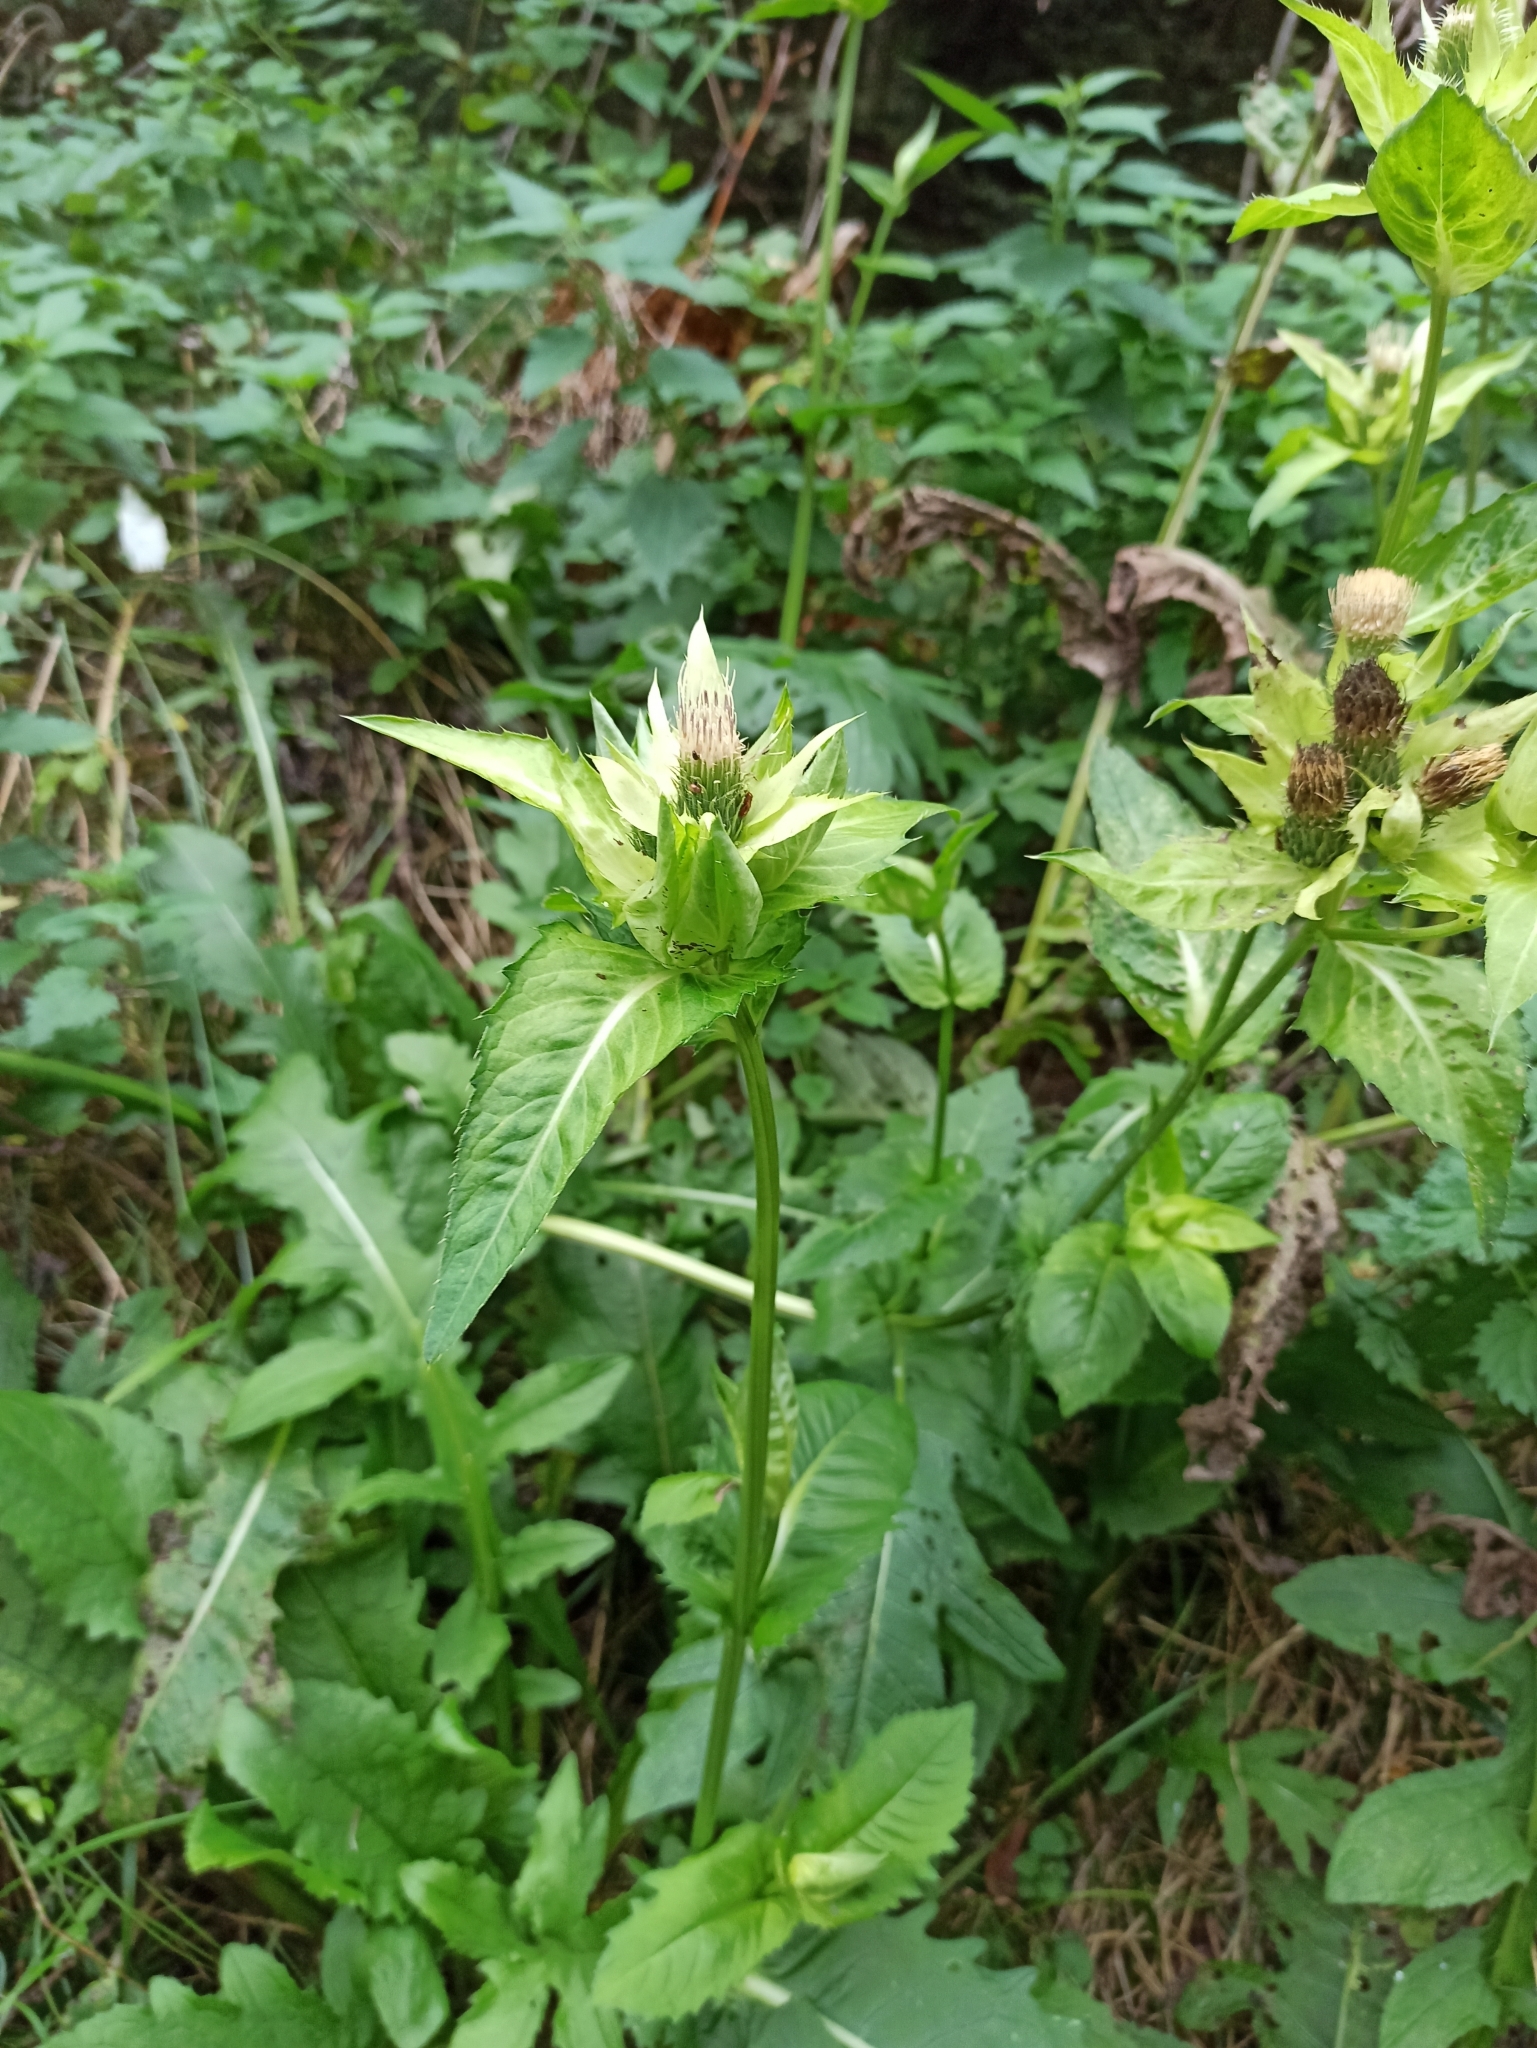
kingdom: Plantae
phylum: Tracheophyta
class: Magnoliopsida
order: Asterales
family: Asteraceae
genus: Cirsium
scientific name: Cirsium oleraceum
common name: Cabbage thistle
